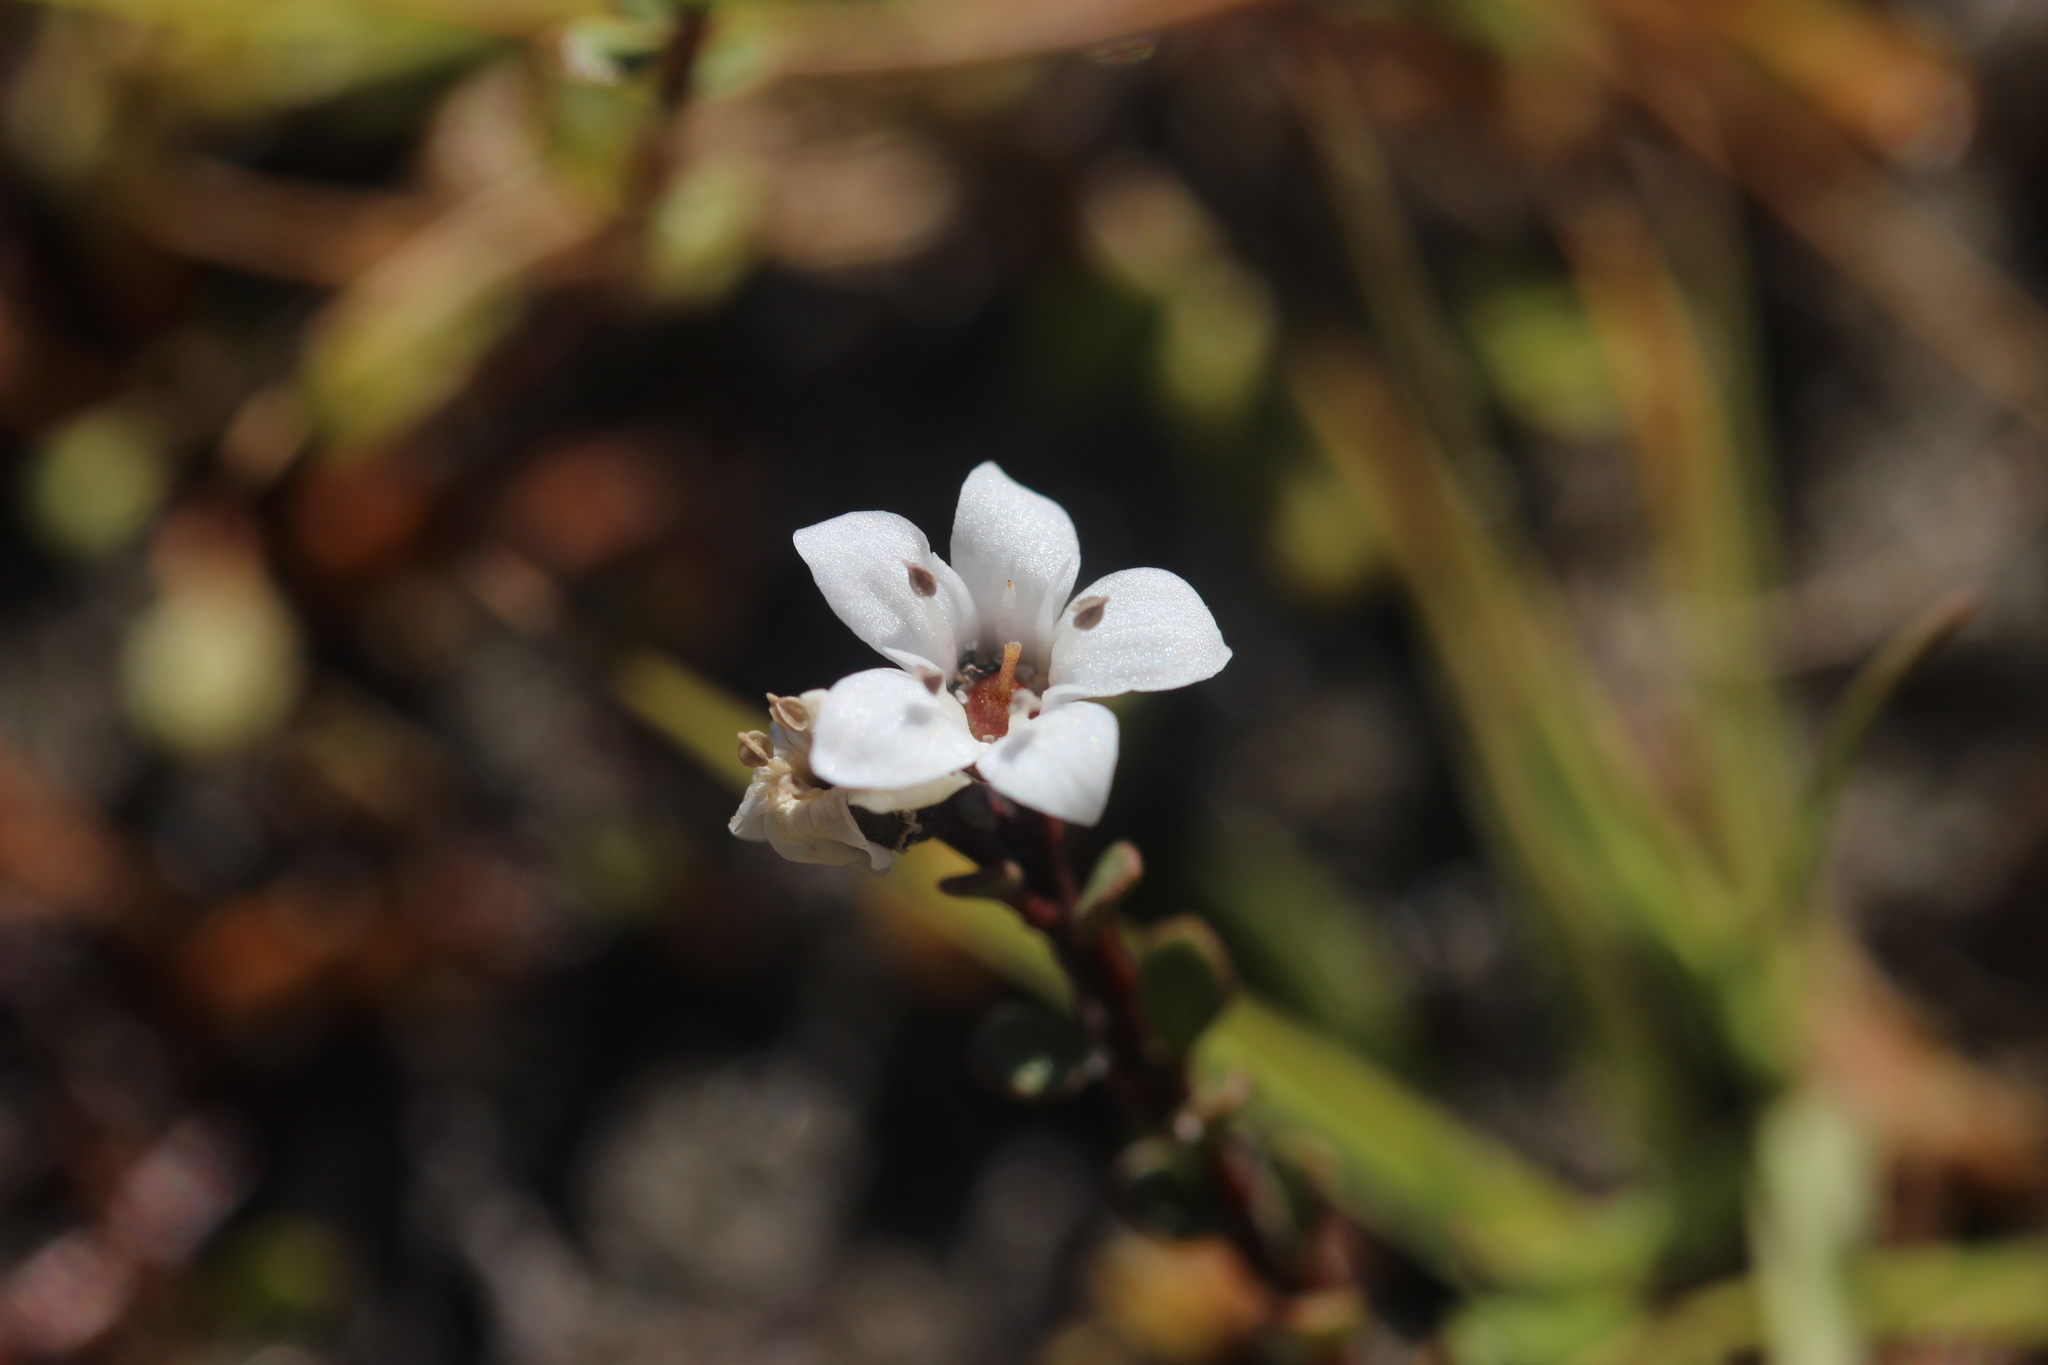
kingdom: Plantae
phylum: Tracheophyta
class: Magnoliopsida
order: Ericales
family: Primulaceae
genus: Samolus
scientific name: Samolus repens
